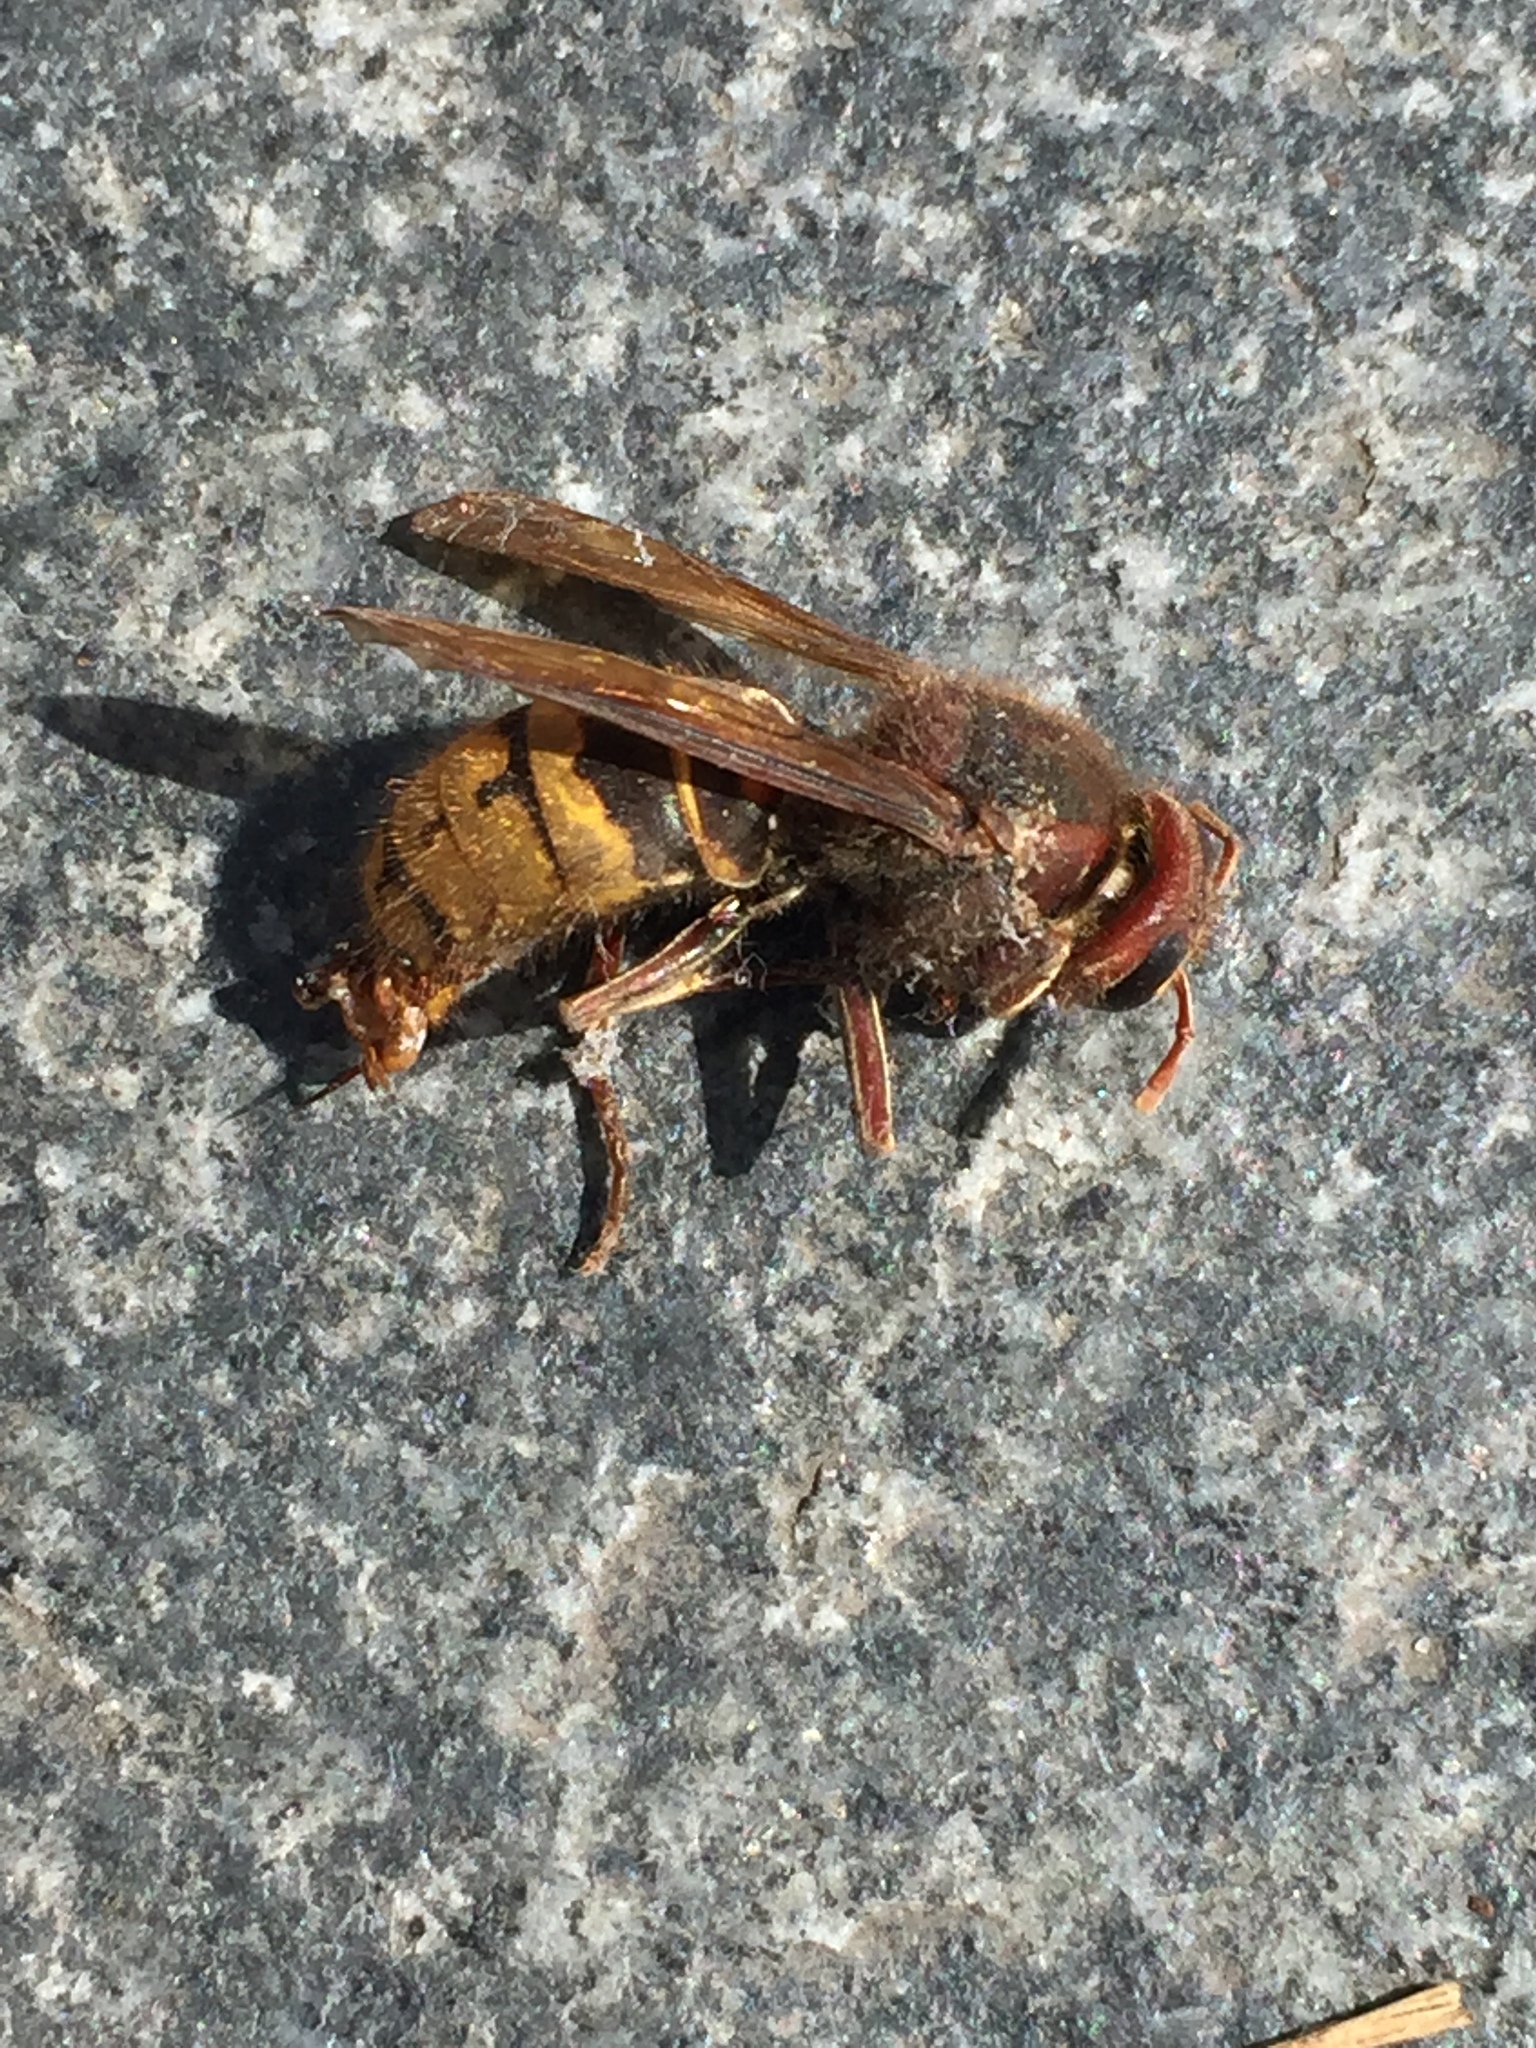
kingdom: Animalia
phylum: Arthropoda
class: Insecta
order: Hymenoptera
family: Vespidae
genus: Vespa
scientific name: Vespa crabro
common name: Hornet
